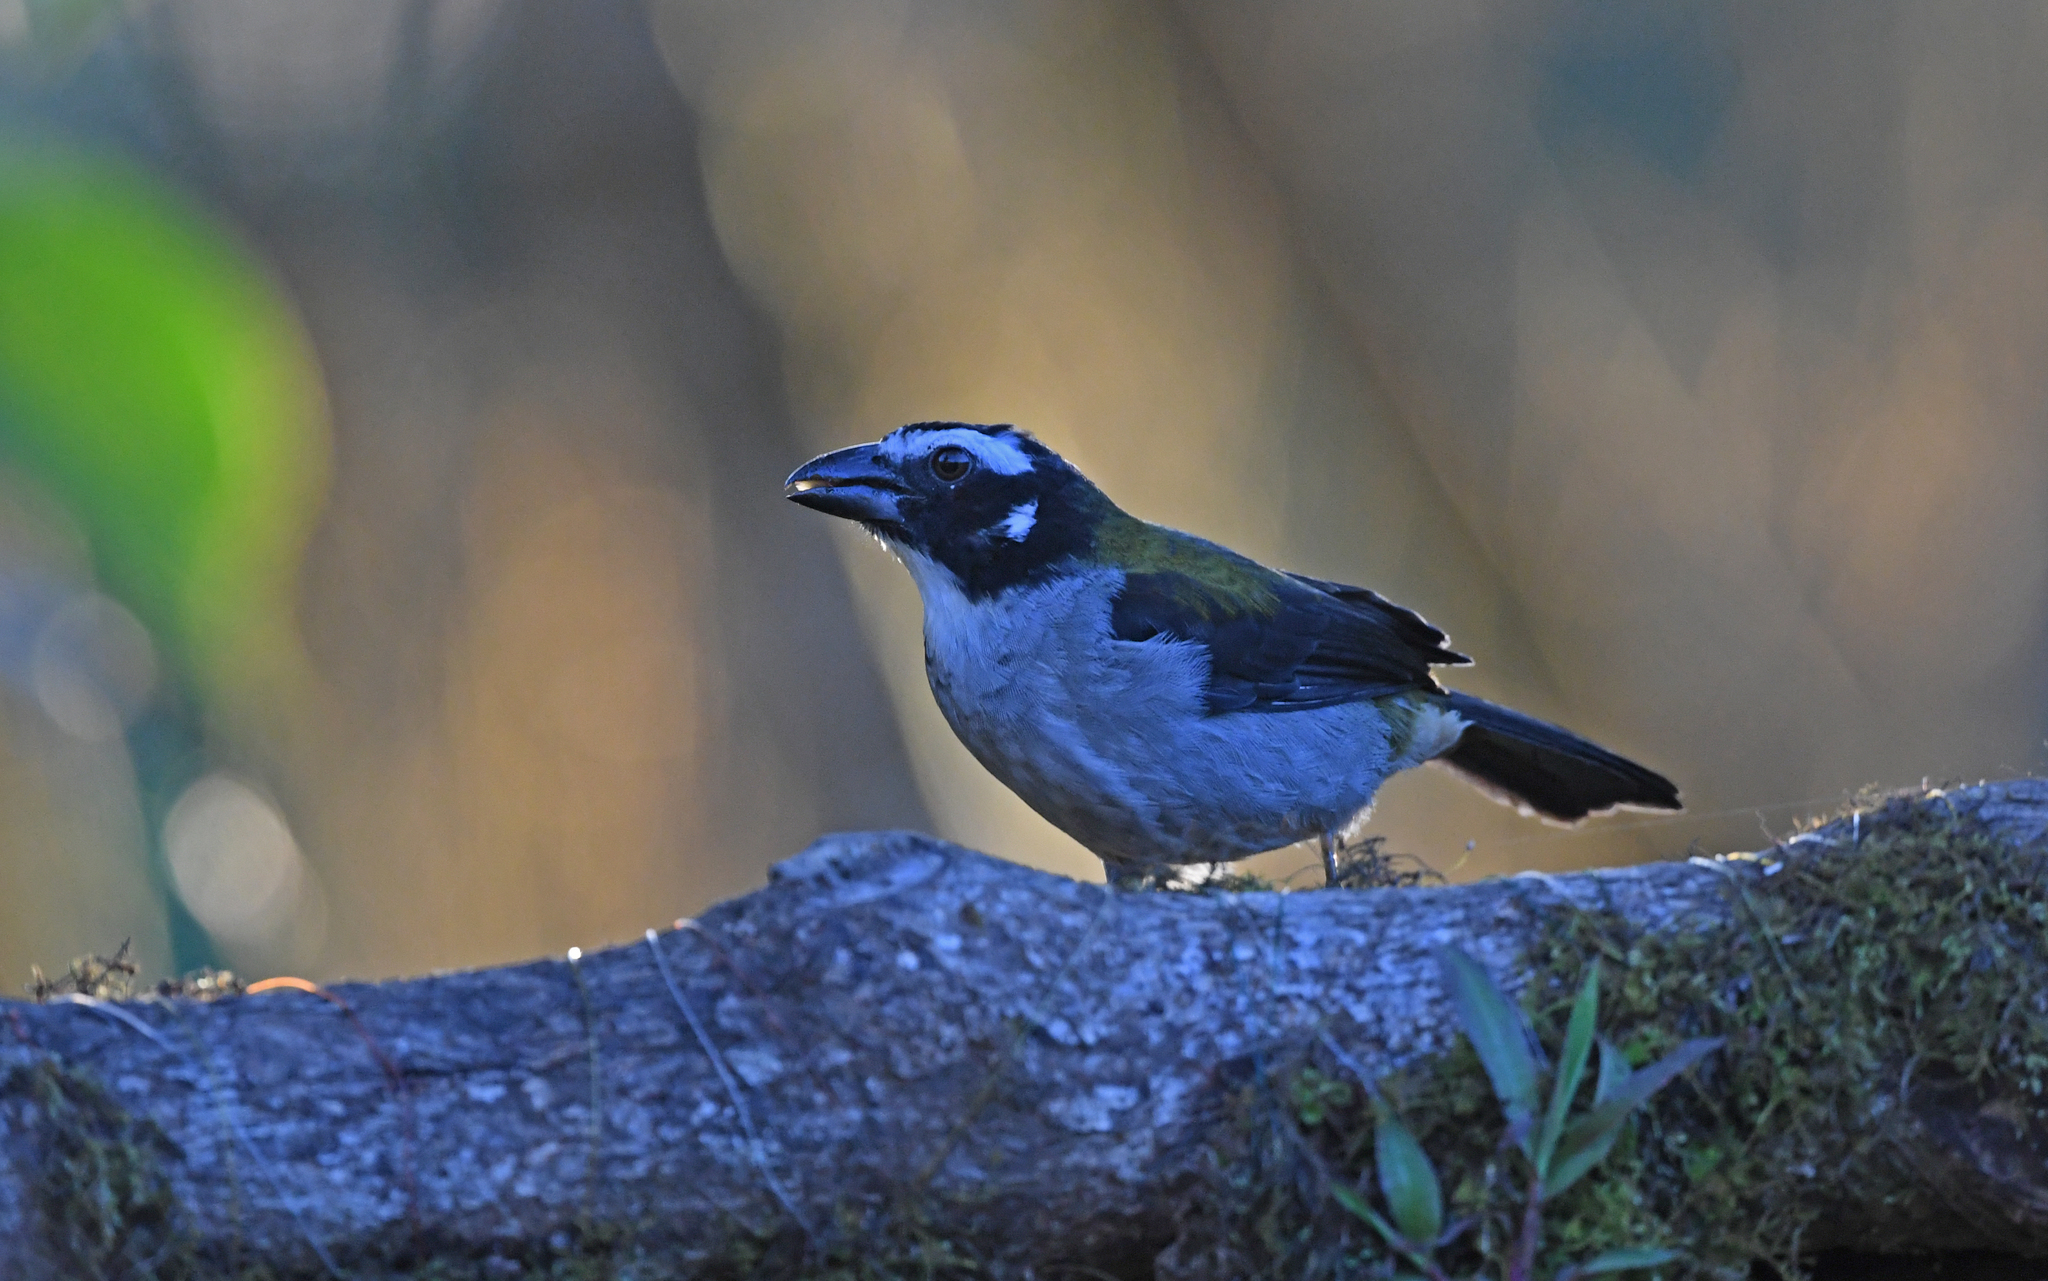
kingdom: Animalia
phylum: Chordata
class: Aves
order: Passeriformes
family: Thraupidae
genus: Saltator
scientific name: Saltator atripennis
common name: Black-winged saltator
